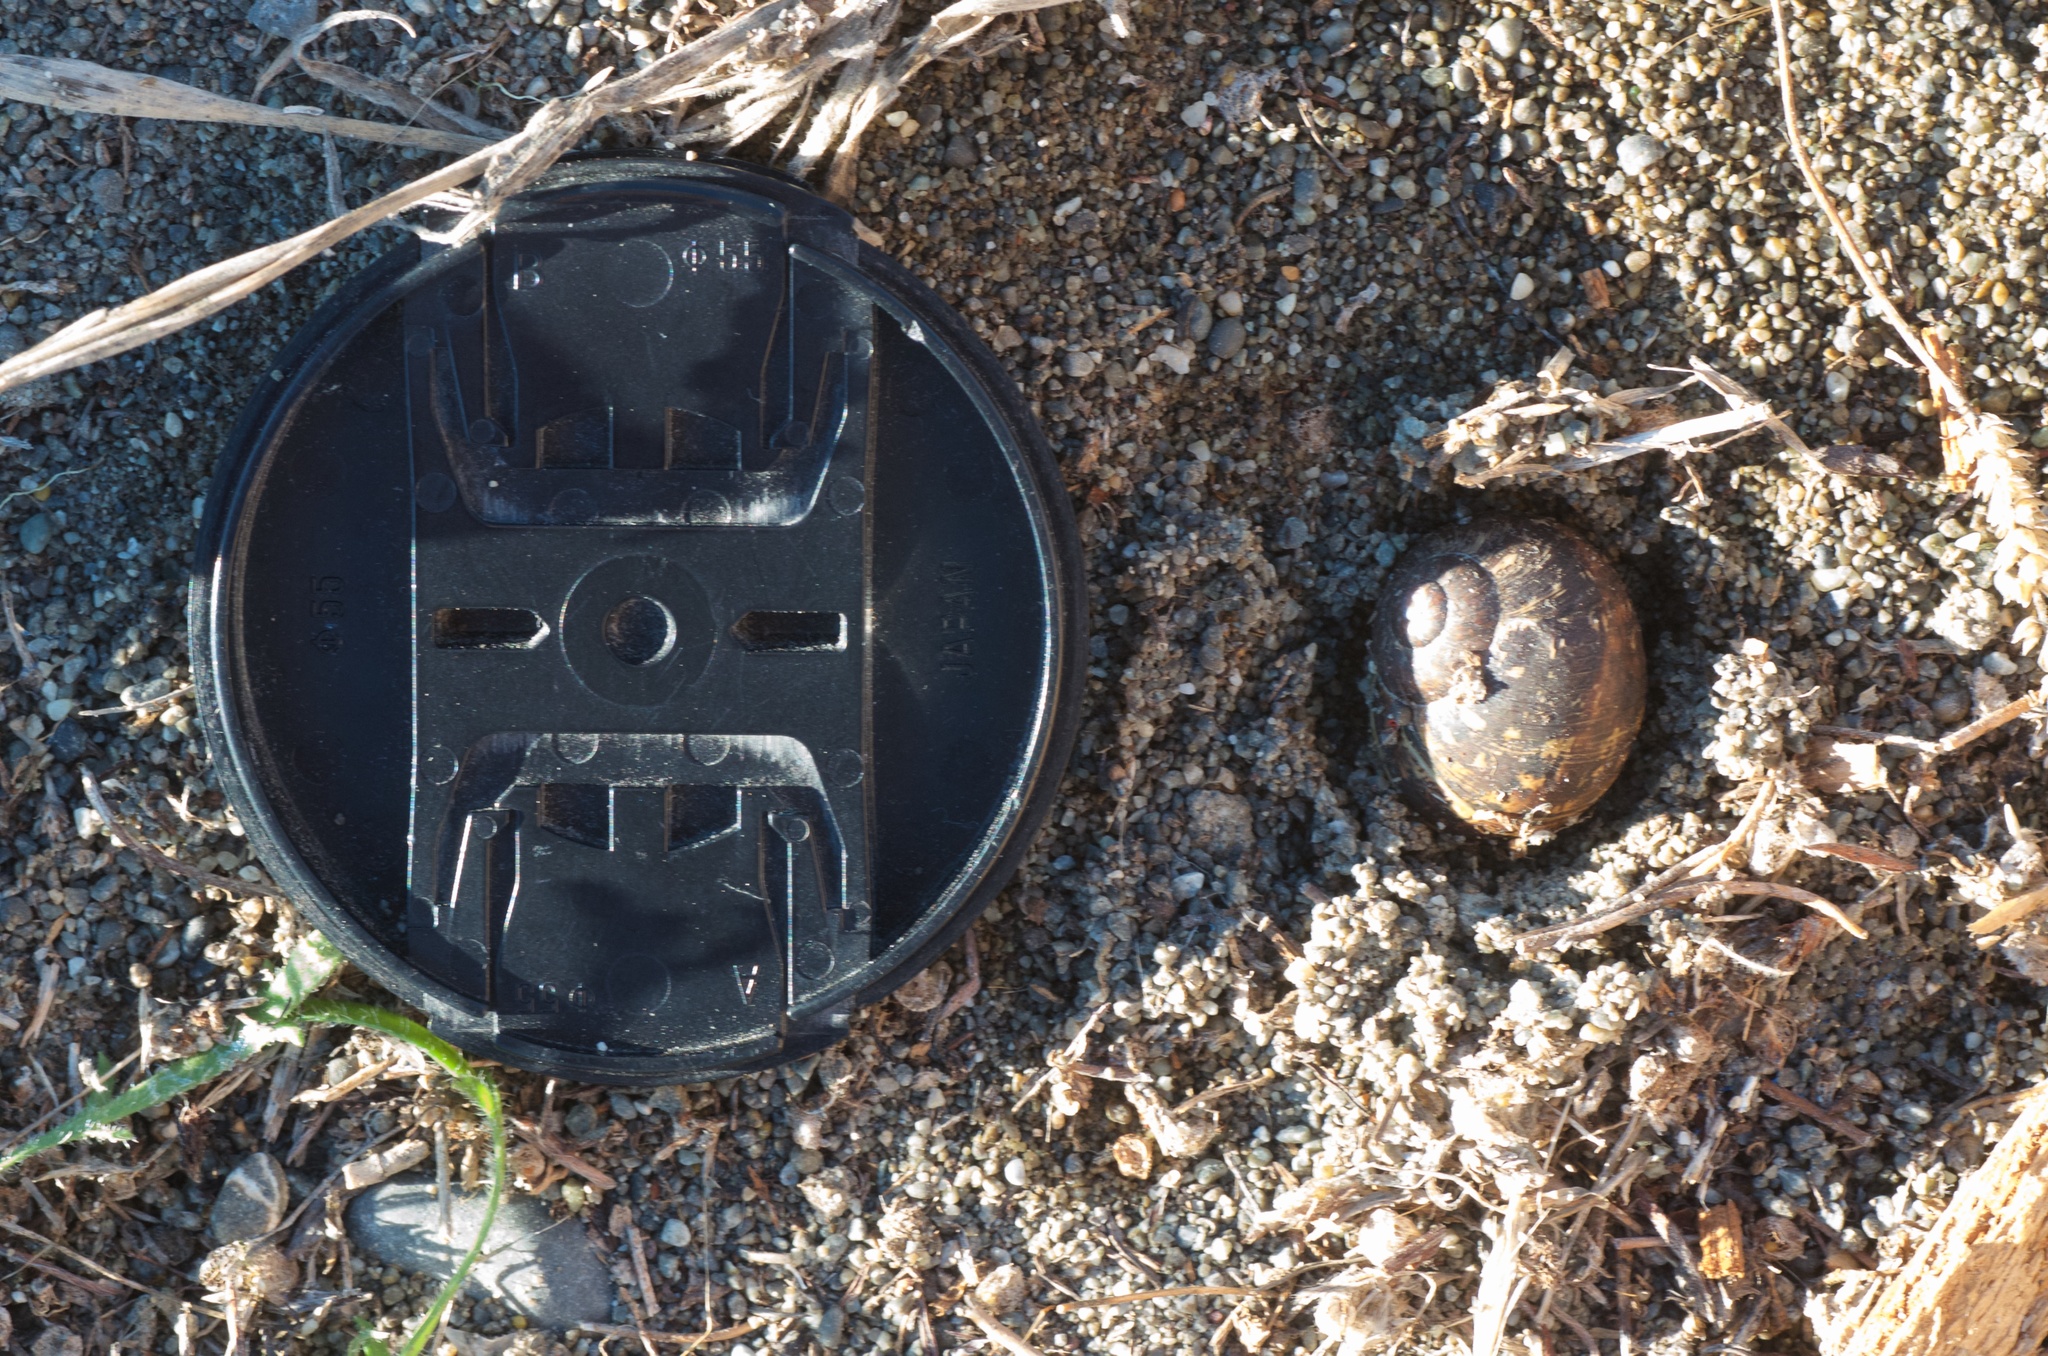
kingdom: Animalia
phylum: Mollusca
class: Gastropoda
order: Stylommatophora
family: Helicidae
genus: Cornu
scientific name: Cornu aspersum
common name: Brown garden snail
